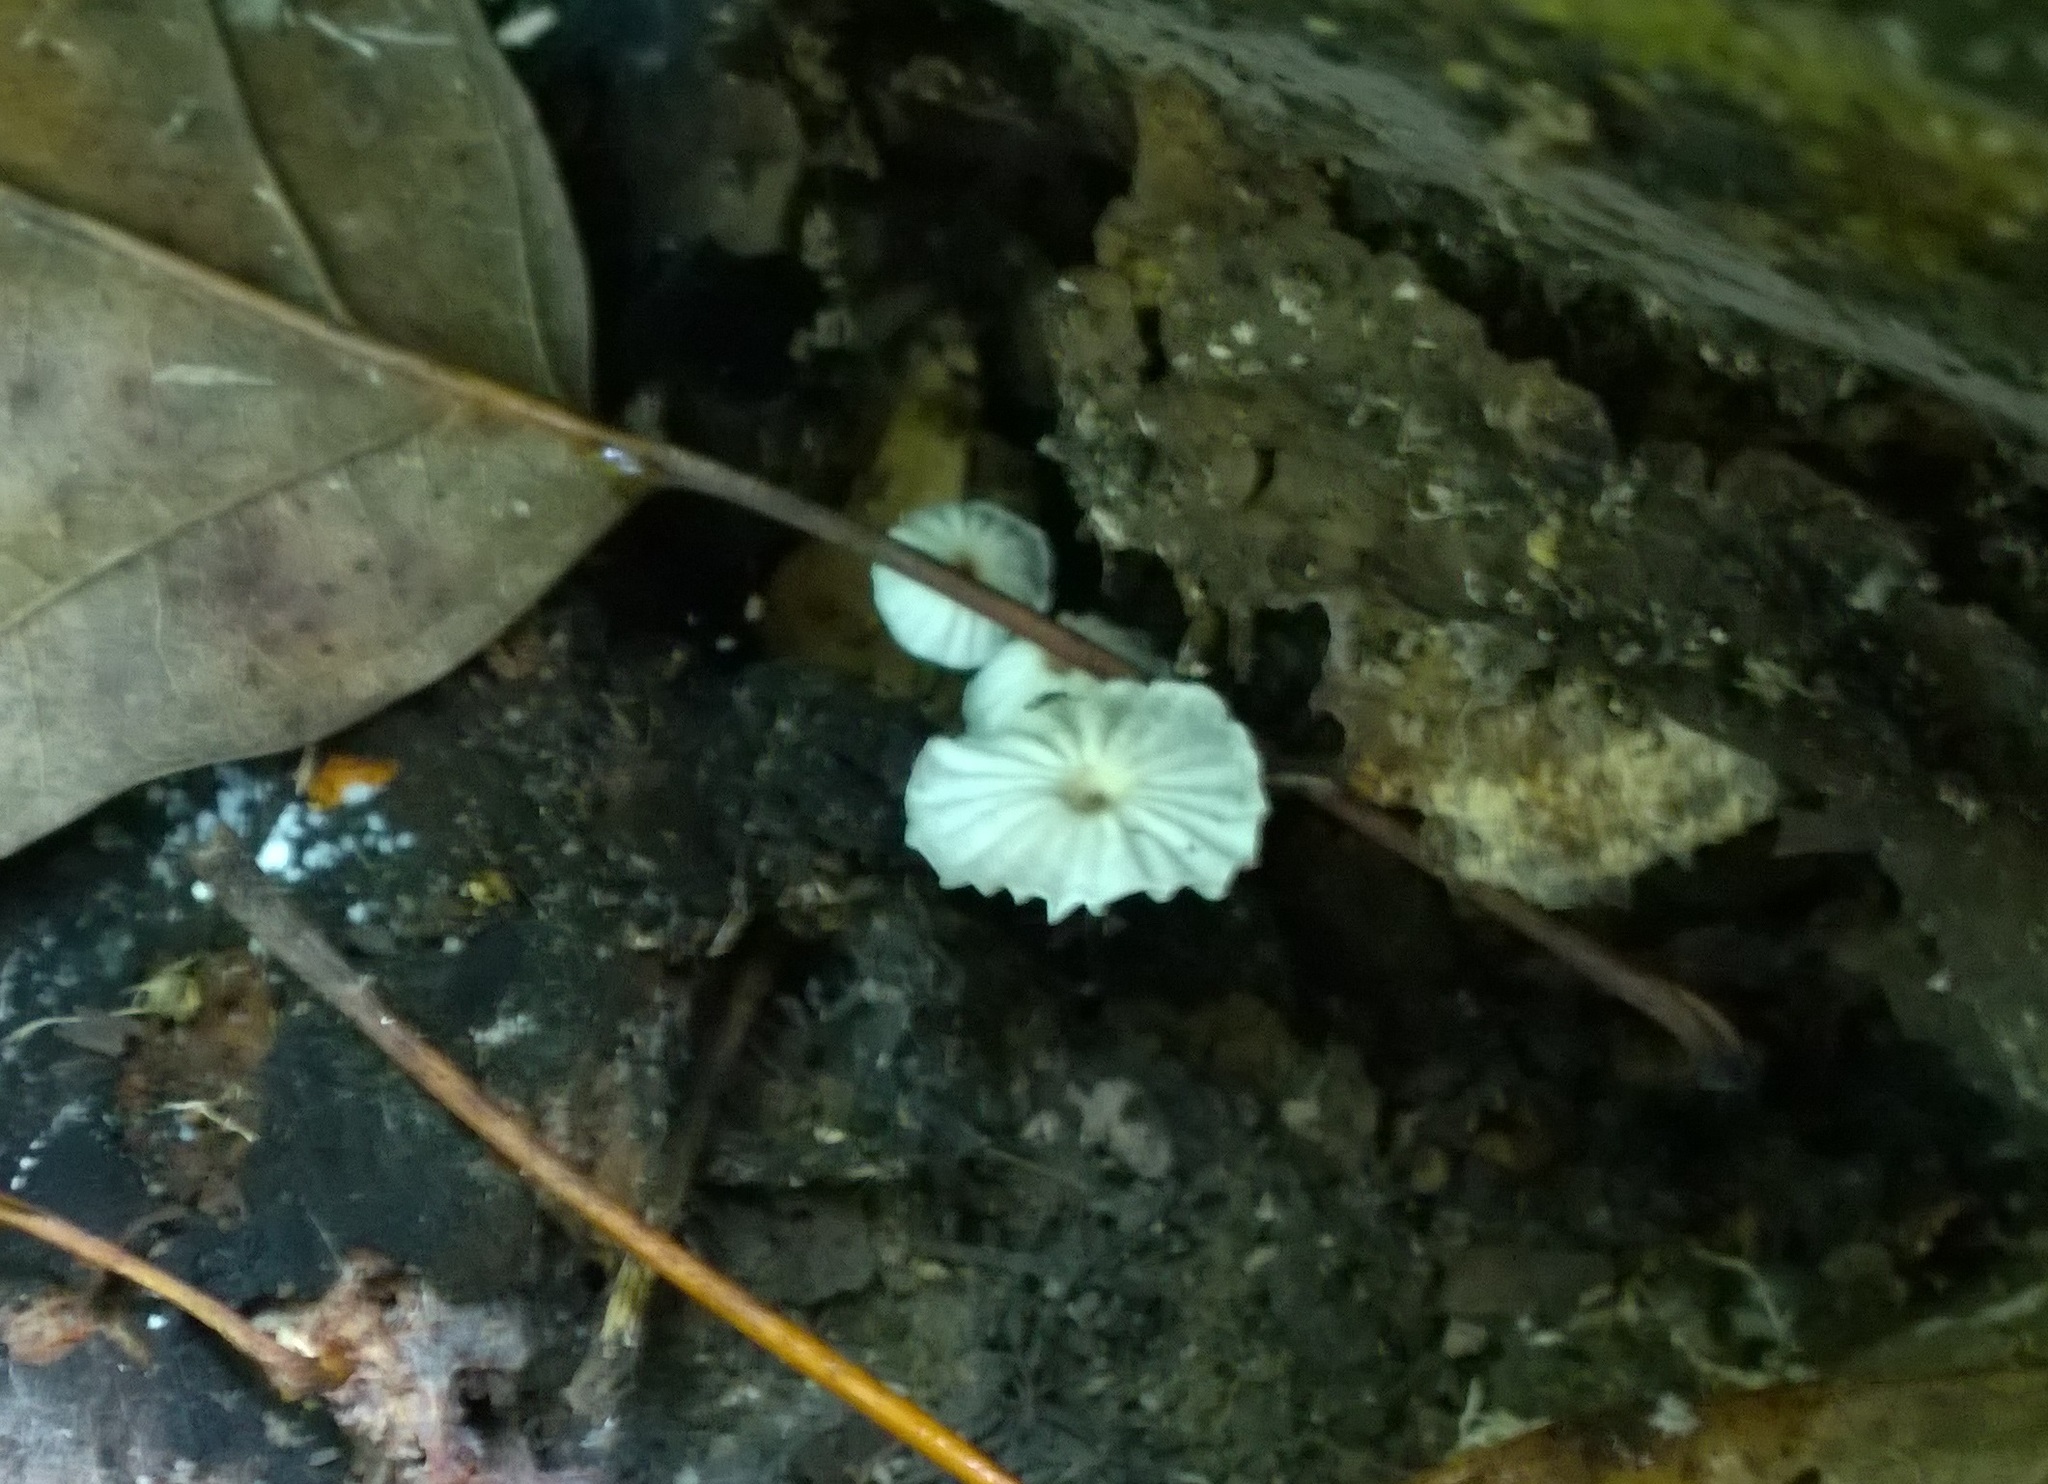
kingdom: Fungi
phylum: Basidiomycota
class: Agaricomycetes
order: Agaricales
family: Marasmiaceae
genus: Marasmius
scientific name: Marasmius rotula
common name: Collared parachute
